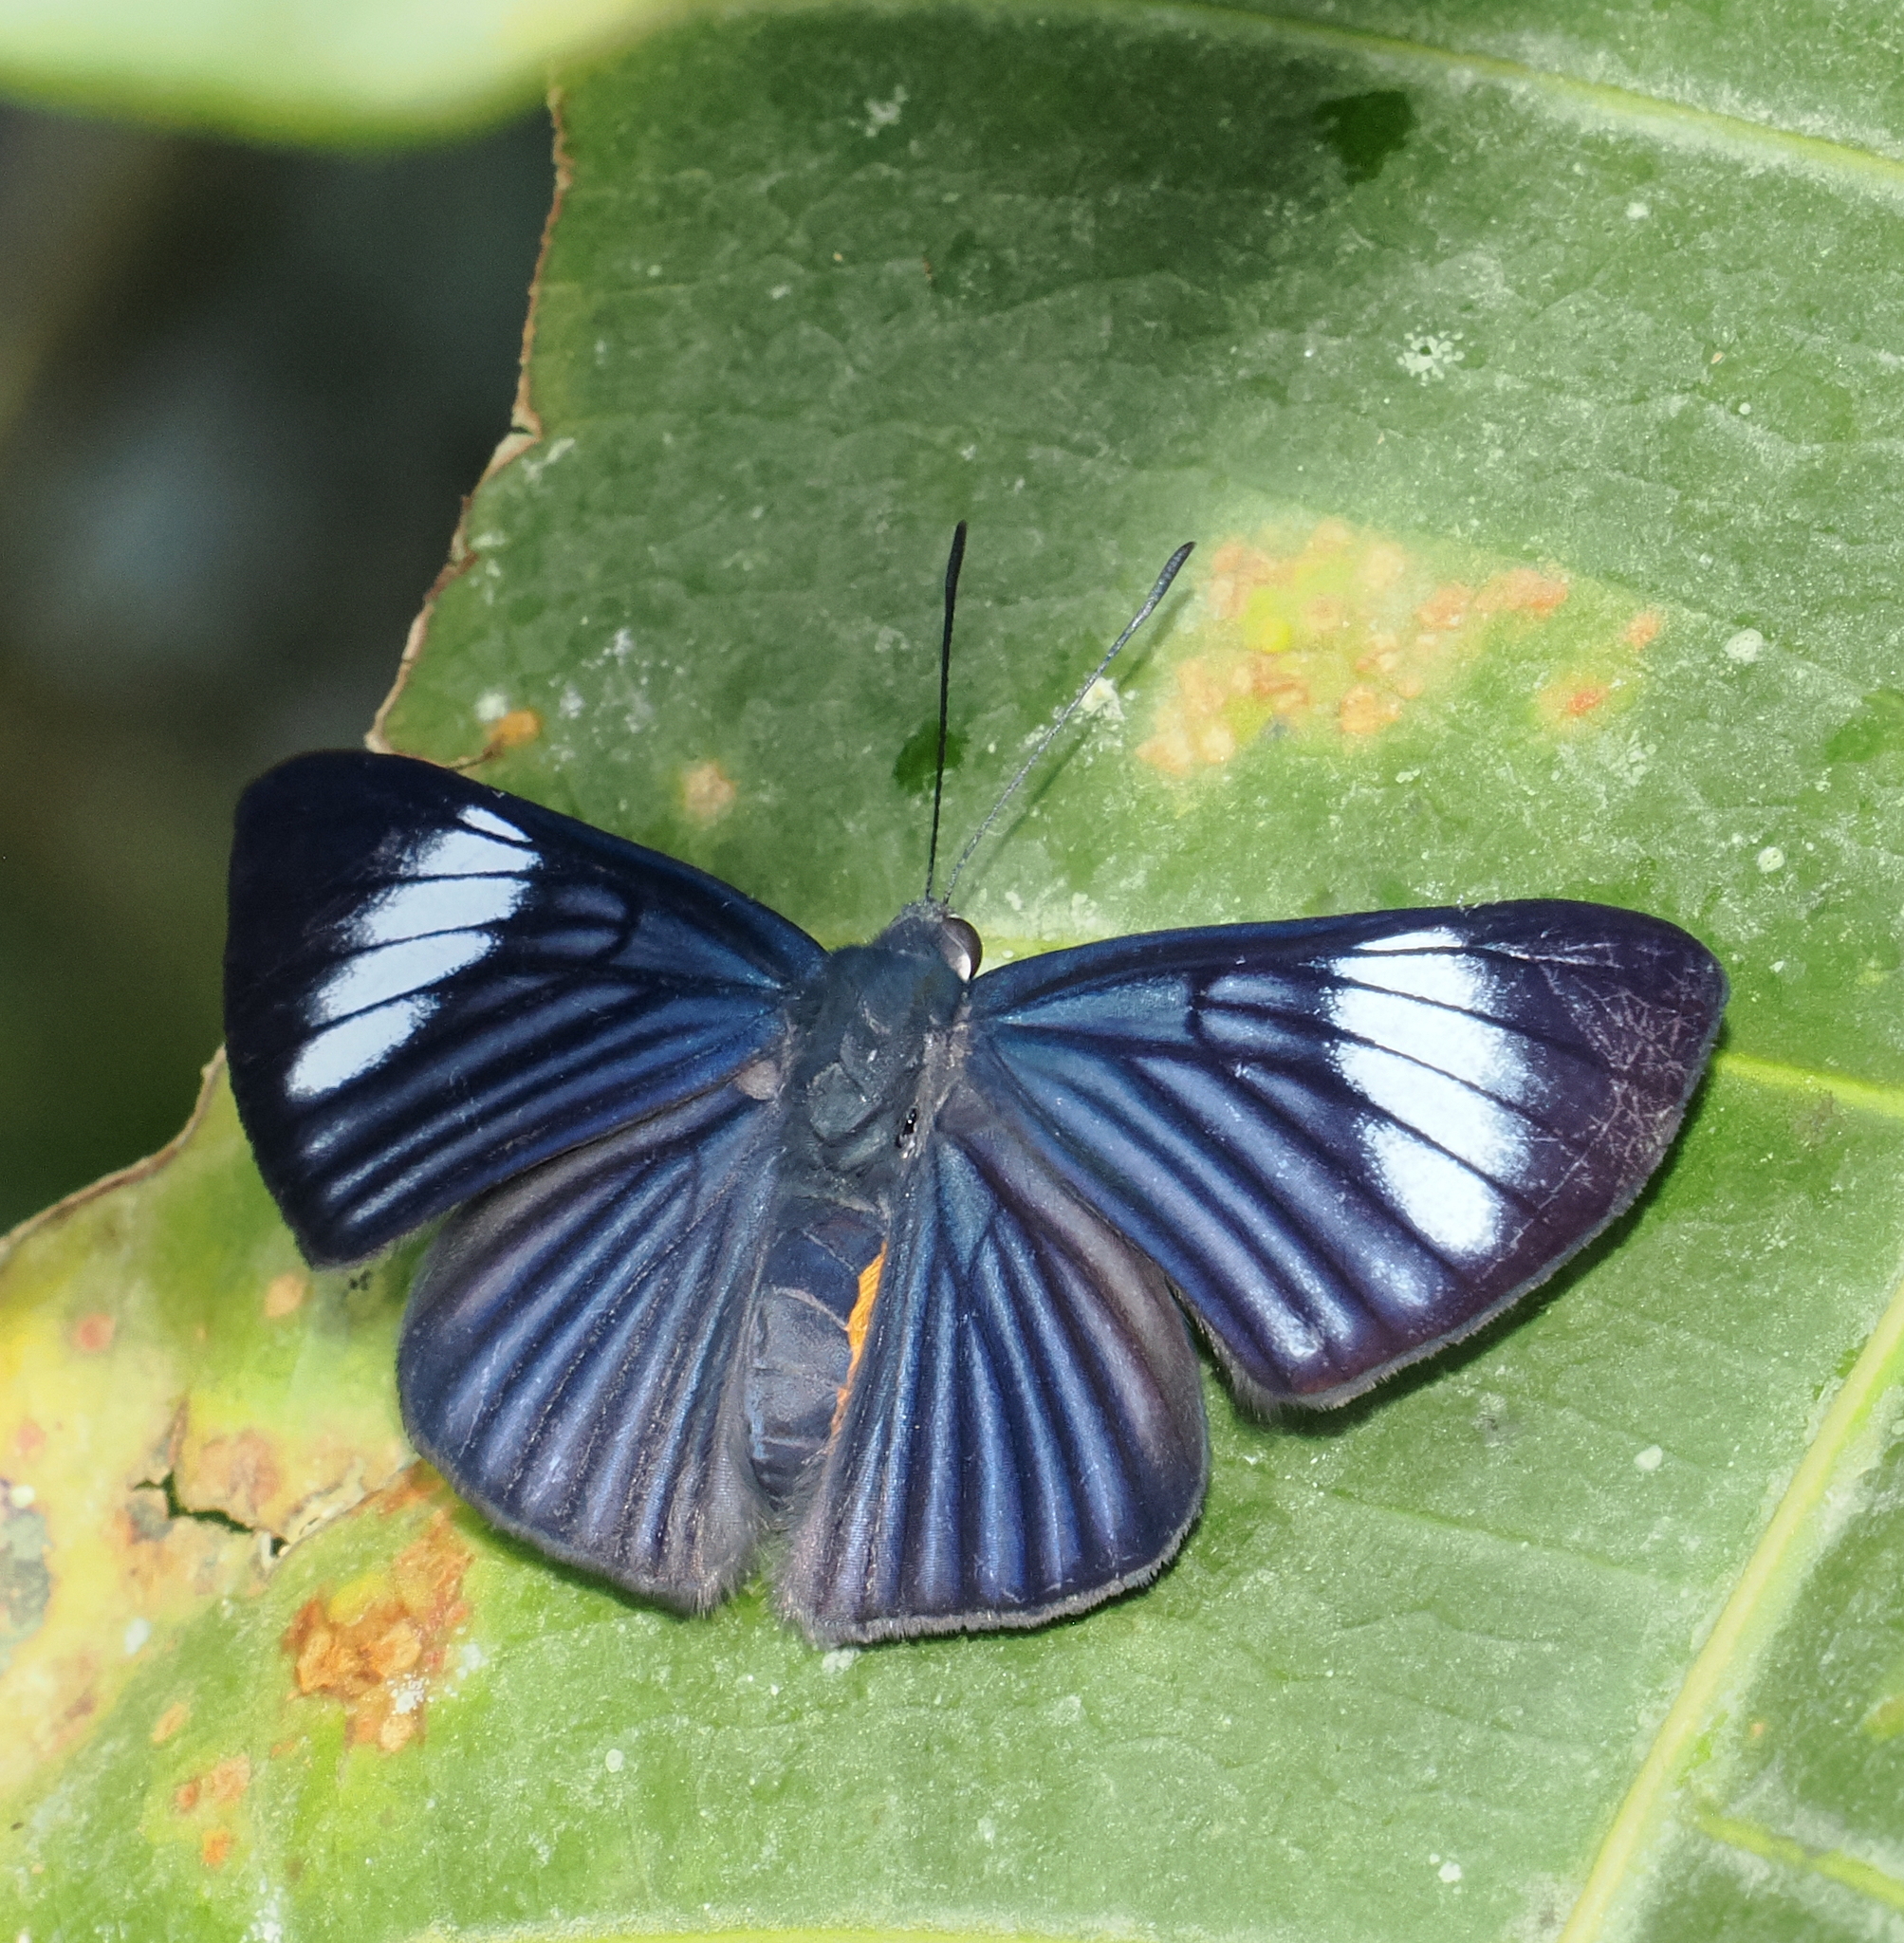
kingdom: Animalia
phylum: Arthropoda
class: Insecta
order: Lepidoptera
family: Riodinidae
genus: Brachyglenis
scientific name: Brachyglenis esthema
